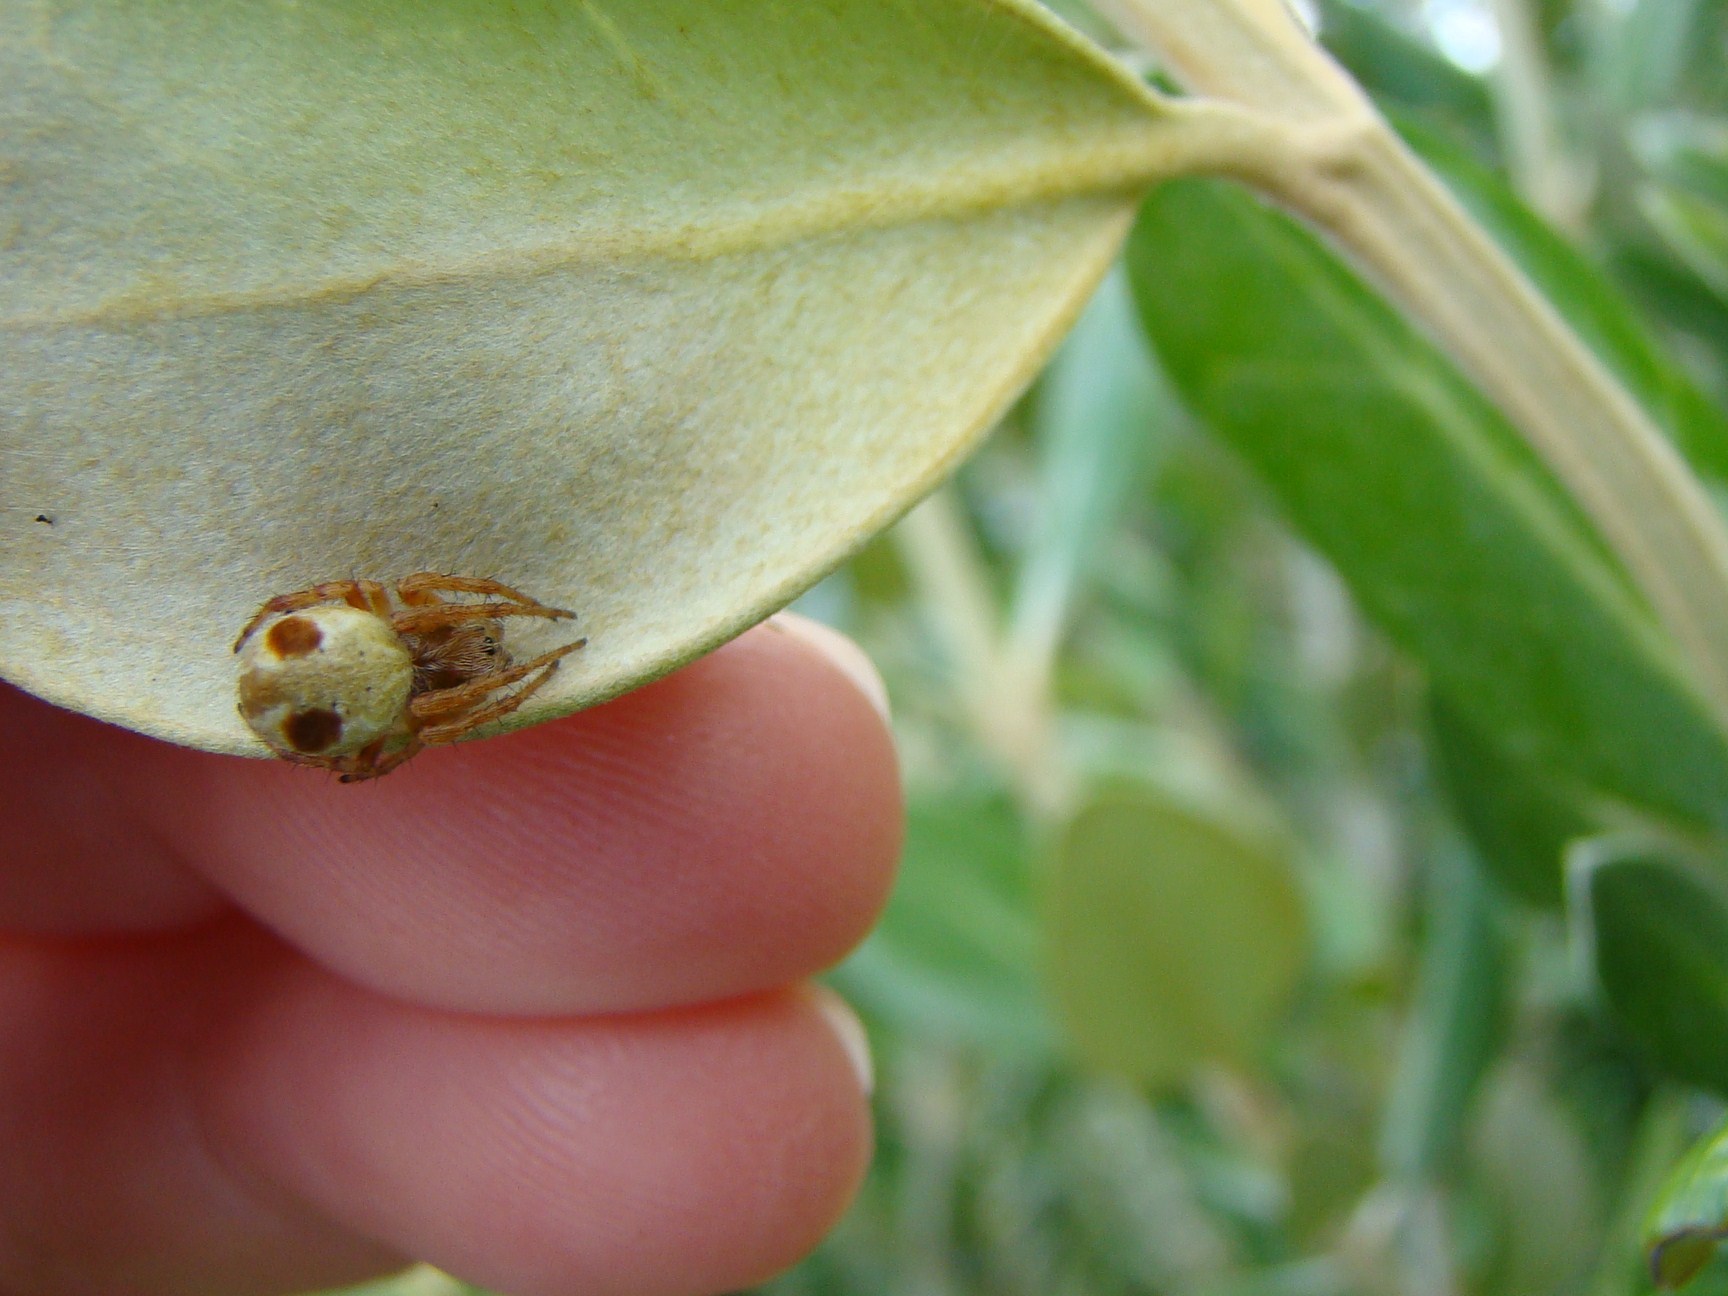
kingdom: Animalia
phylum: Arthropoda
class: Arachnida
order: Araneae
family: Araneidae
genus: Salsa
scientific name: Salsa fuliginata
